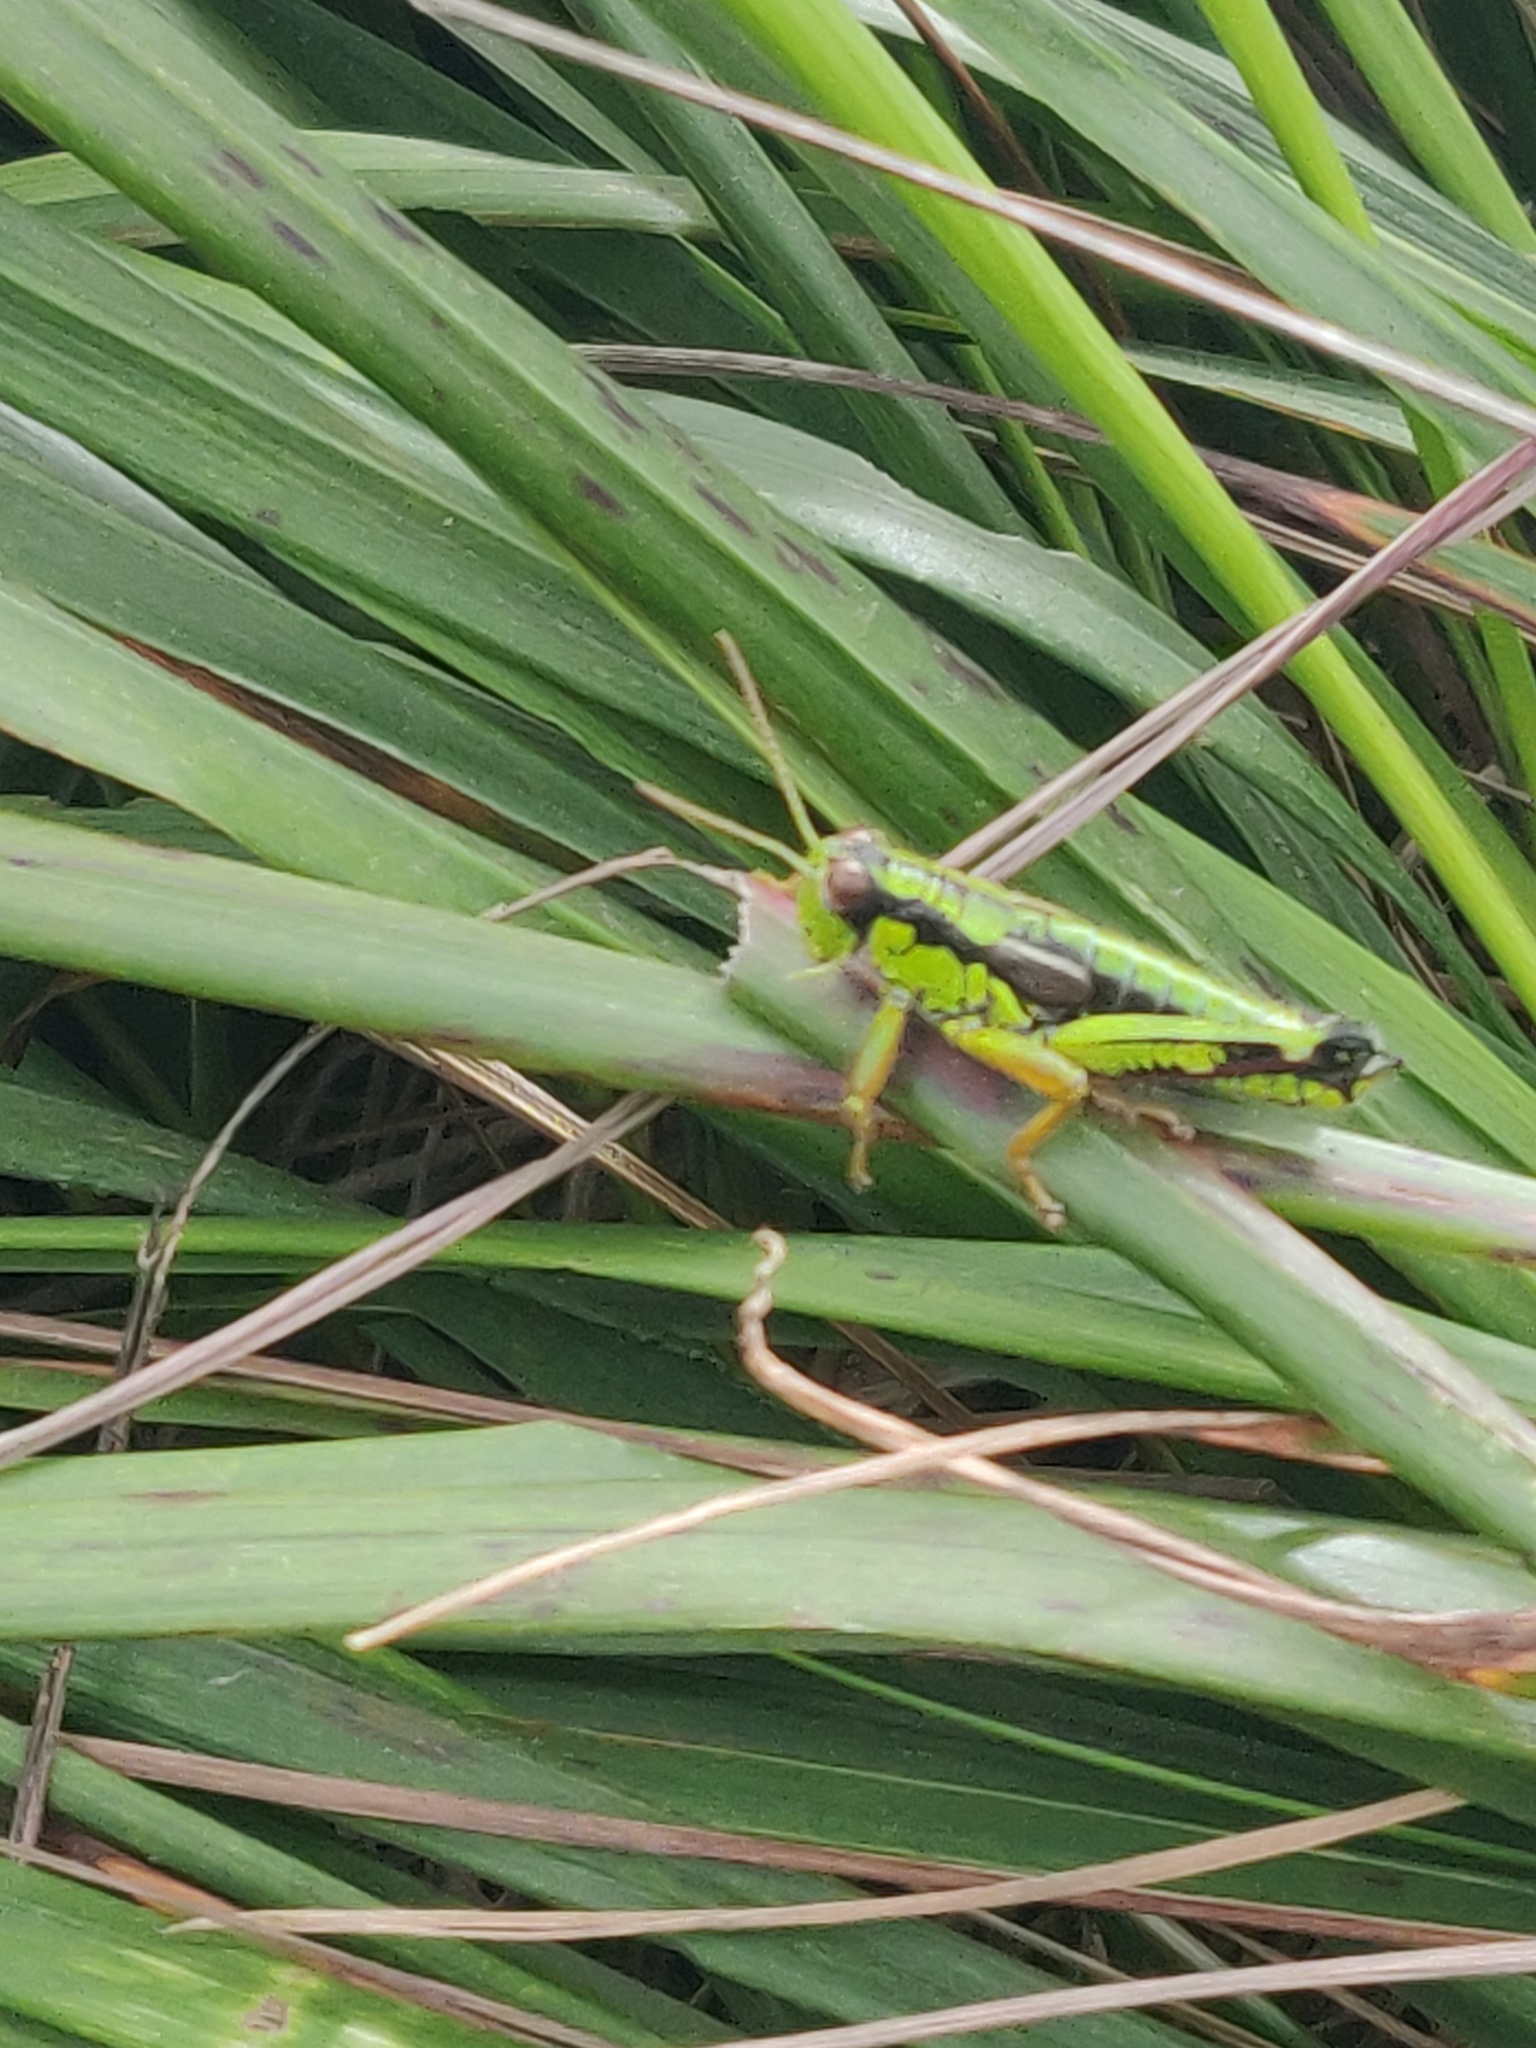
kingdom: Animalia
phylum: Arthropoda
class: Insecta
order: Orthoptera
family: Acrididae
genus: Miramella
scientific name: Miramella alpina
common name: Green mountain grasshopper
